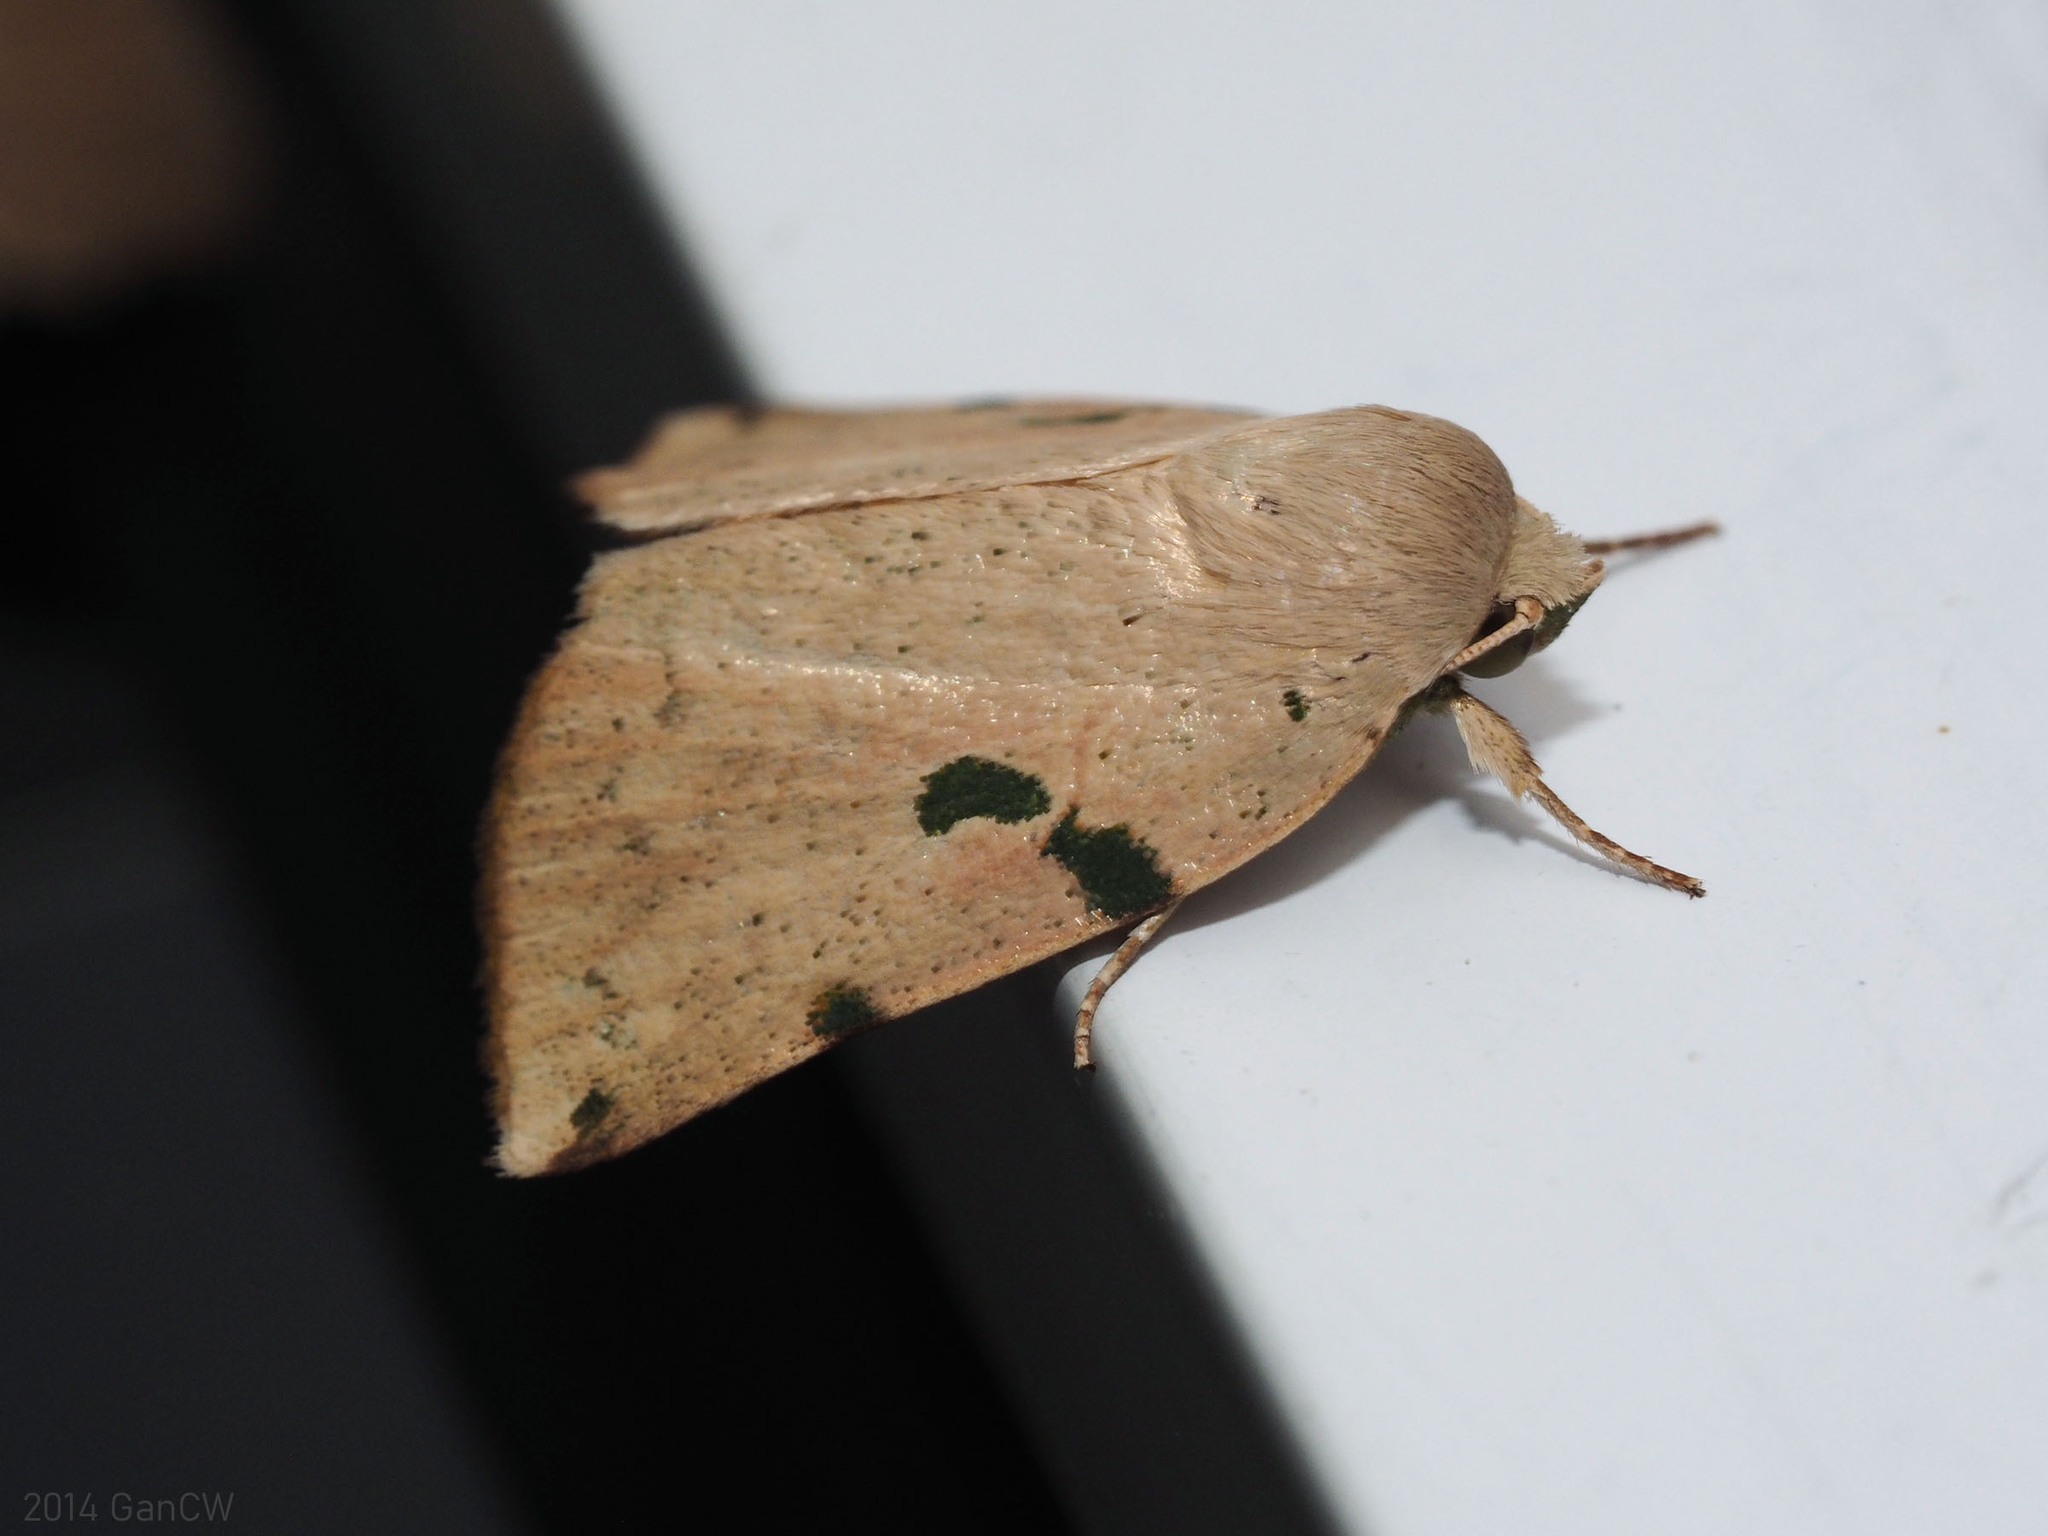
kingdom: Animalia
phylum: Arthropoda
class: Insecta
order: Lepidoptera
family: Nolidae
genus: Chloroplaga
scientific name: Chloroplaga pallida
